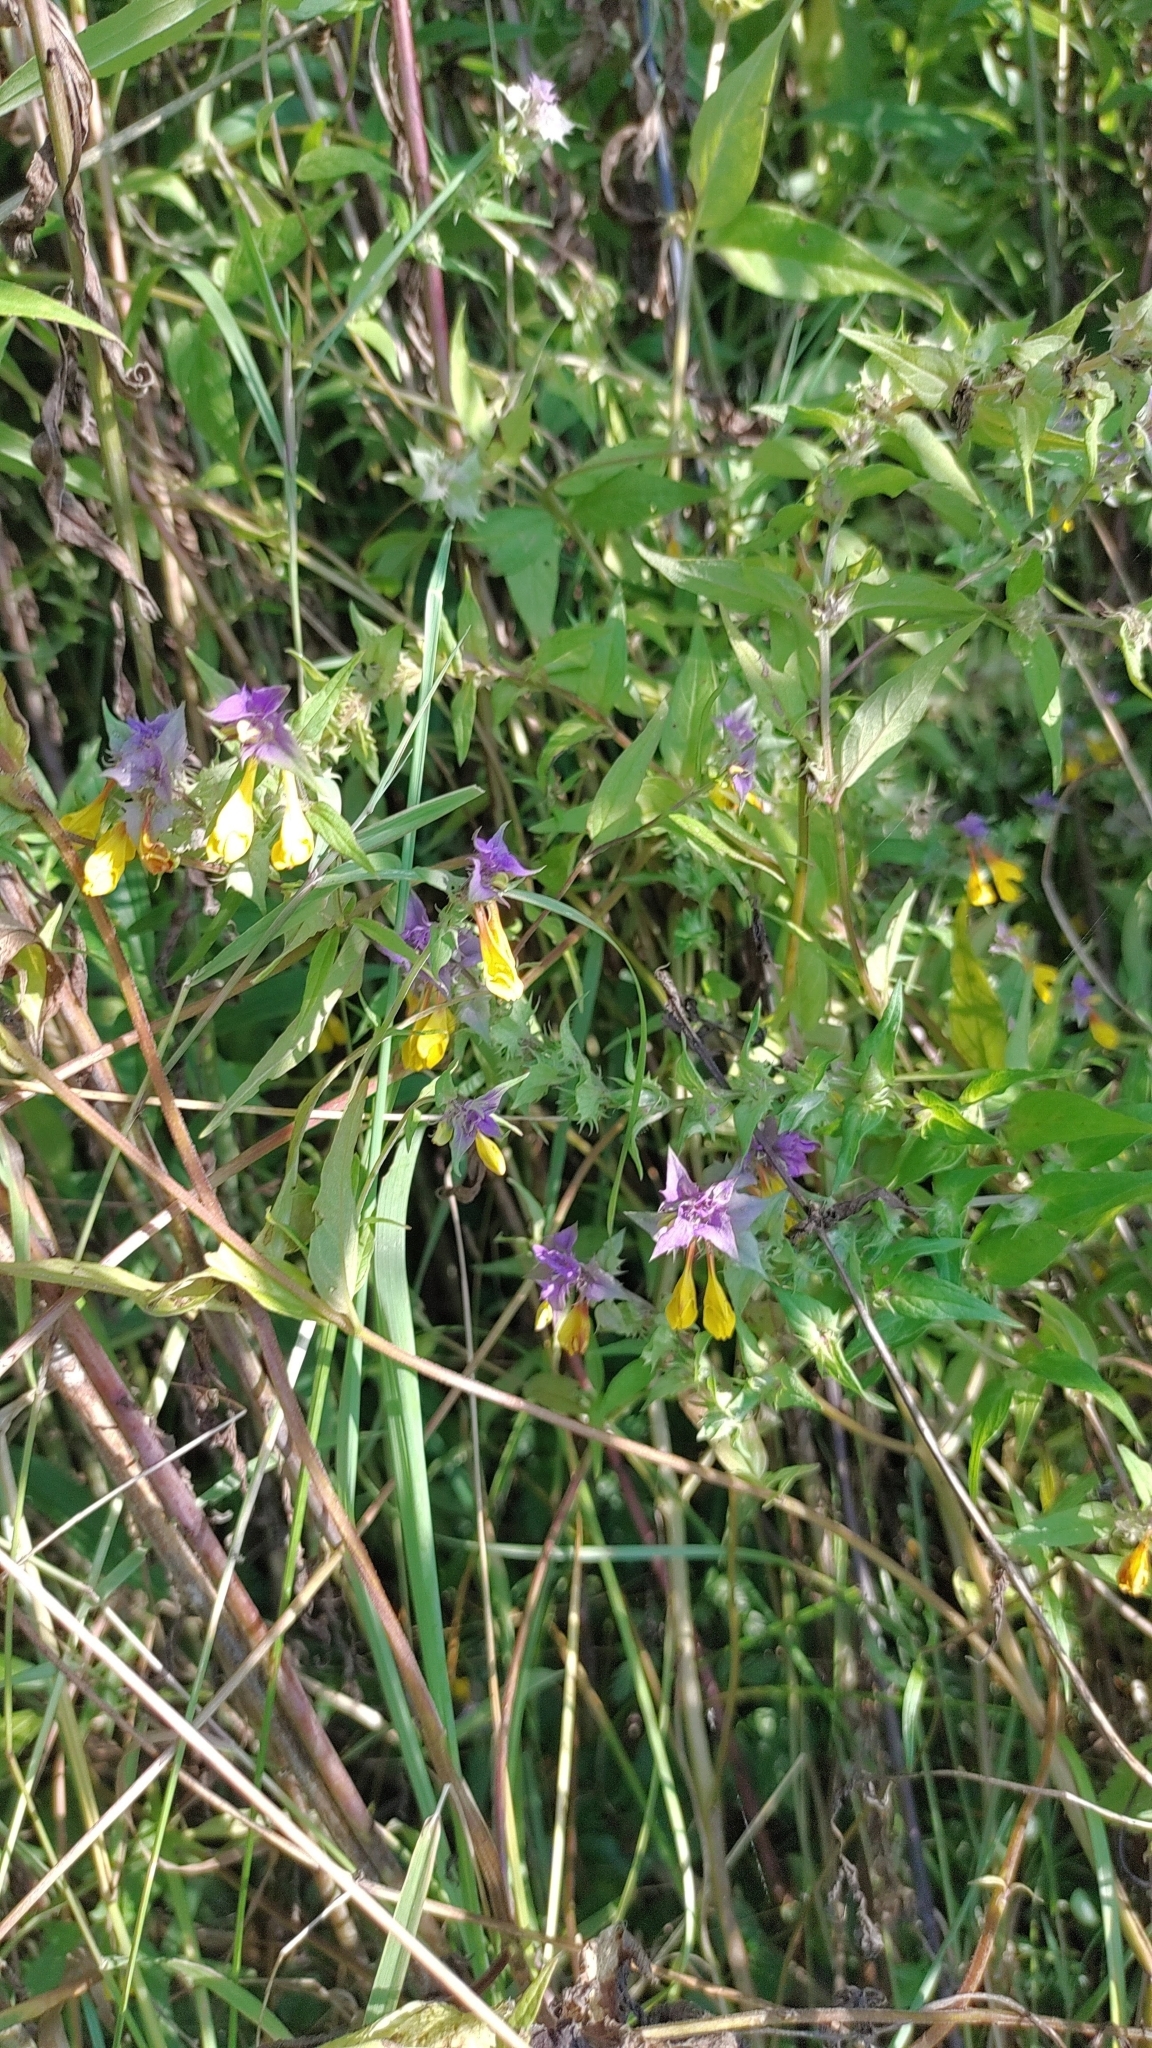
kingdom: Plantae
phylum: Tracheophyta
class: Magnoliopsida
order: Lamiales
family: Orobanchaceae
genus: Melampyrum
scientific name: Melampyrum nemorosum
